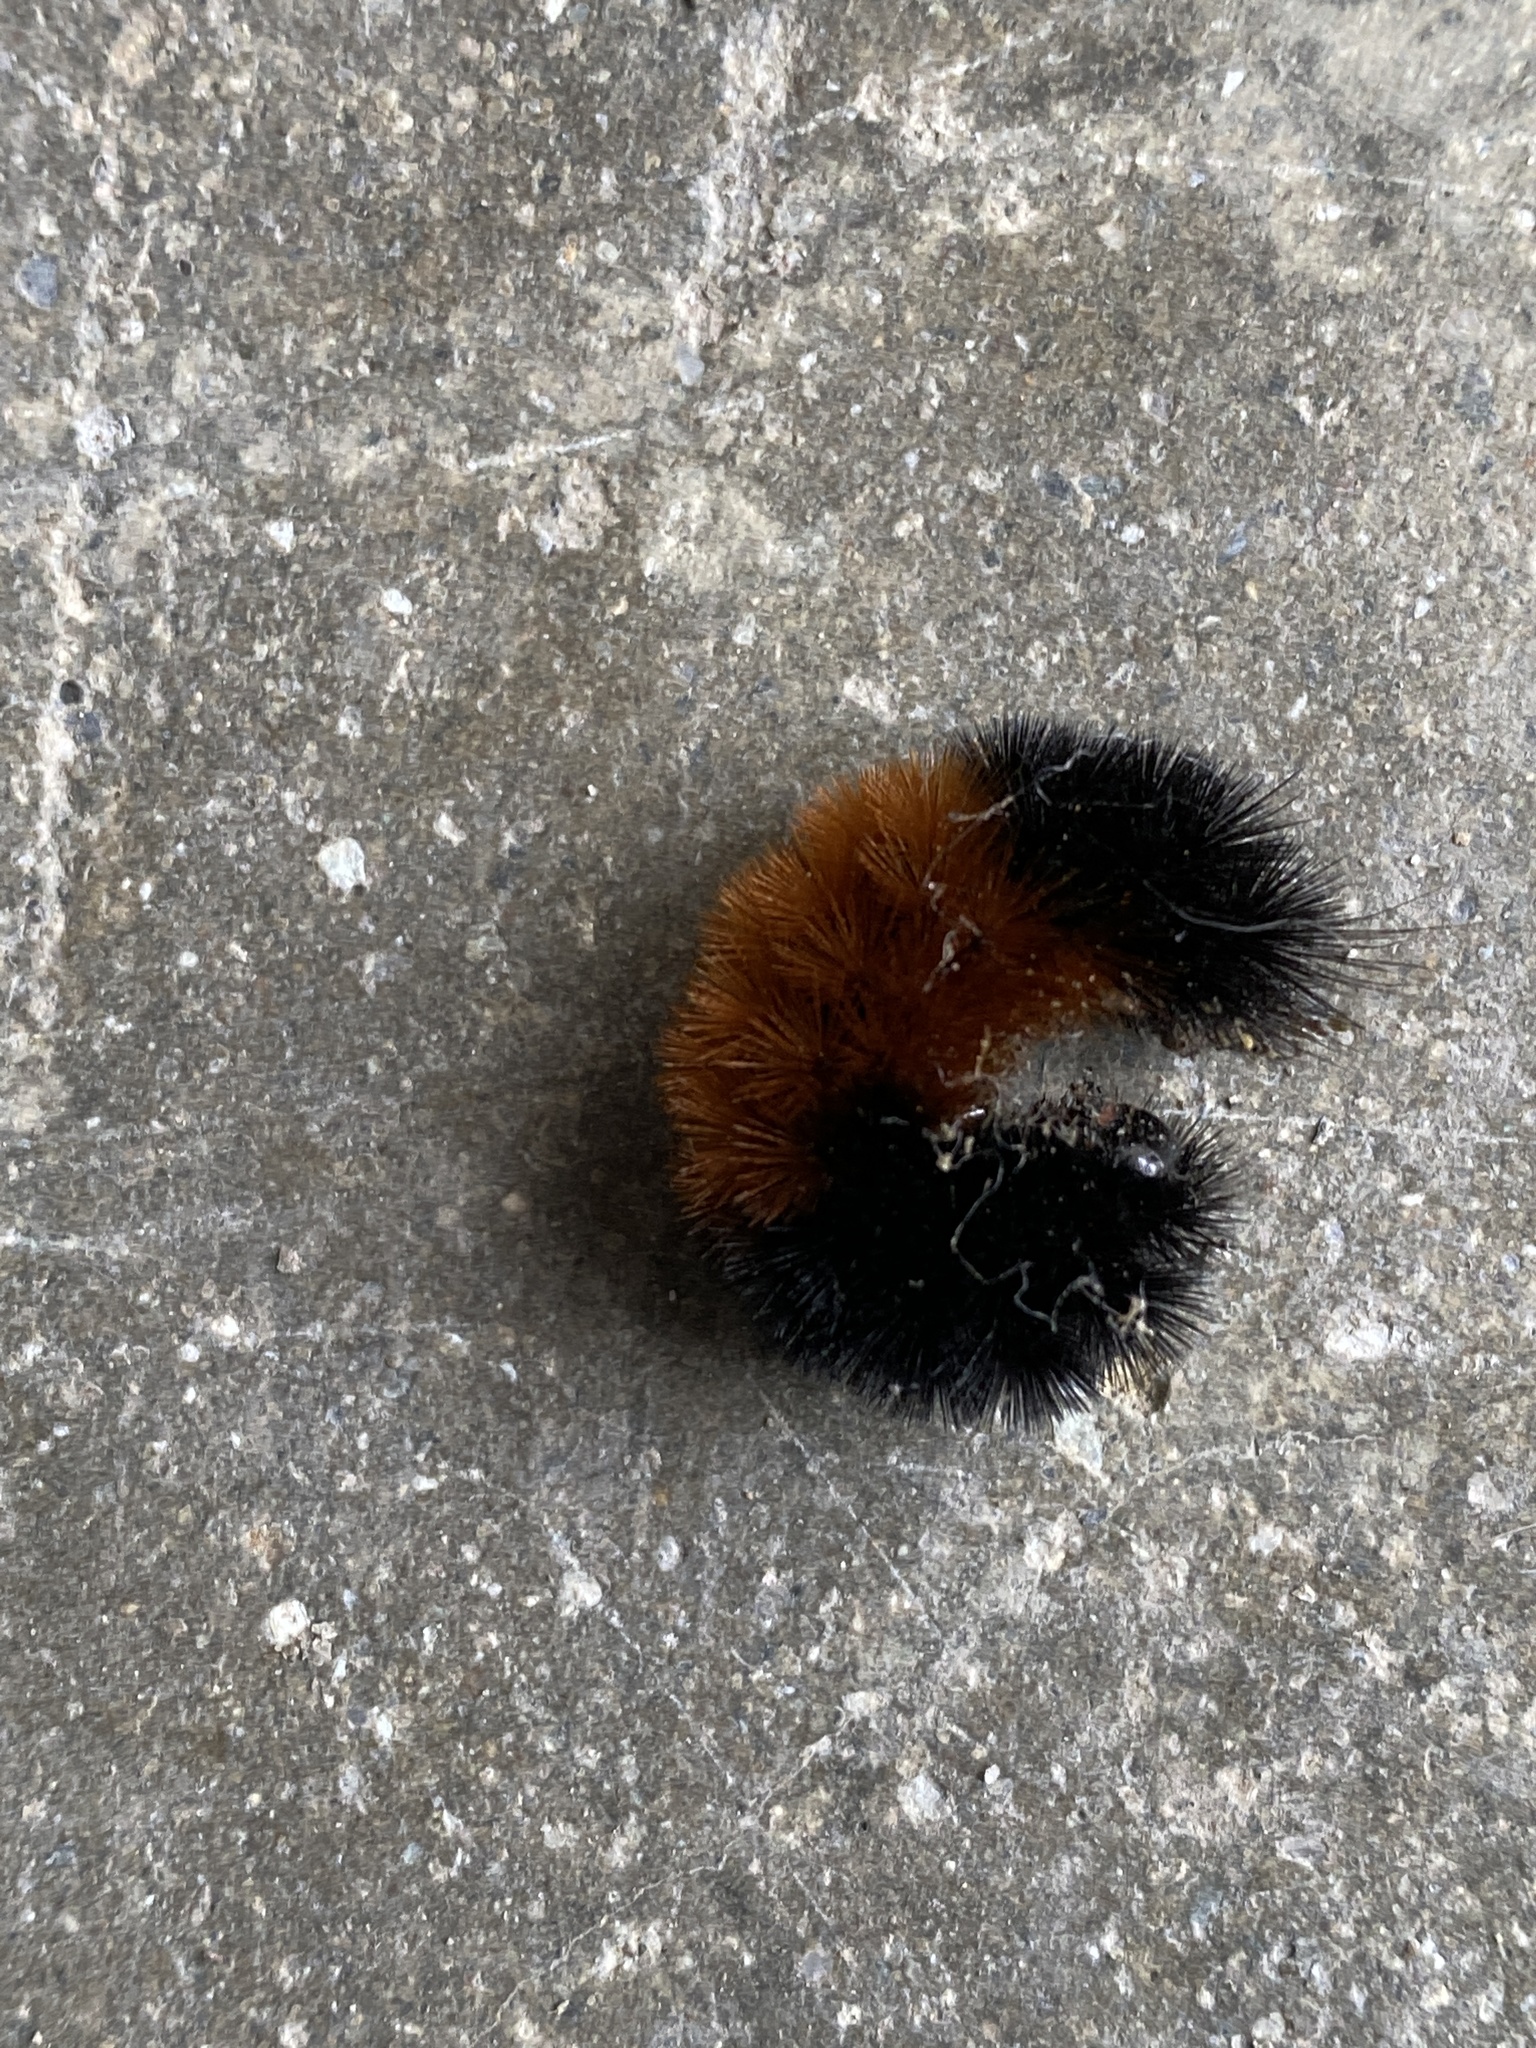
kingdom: Animalia
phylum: Arthropoda
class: Insecta
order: Lepidoptera
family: Erebidae
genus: Pyrrharctia
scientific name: Pyrrharctia isabella
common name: Isabella tiger moth
